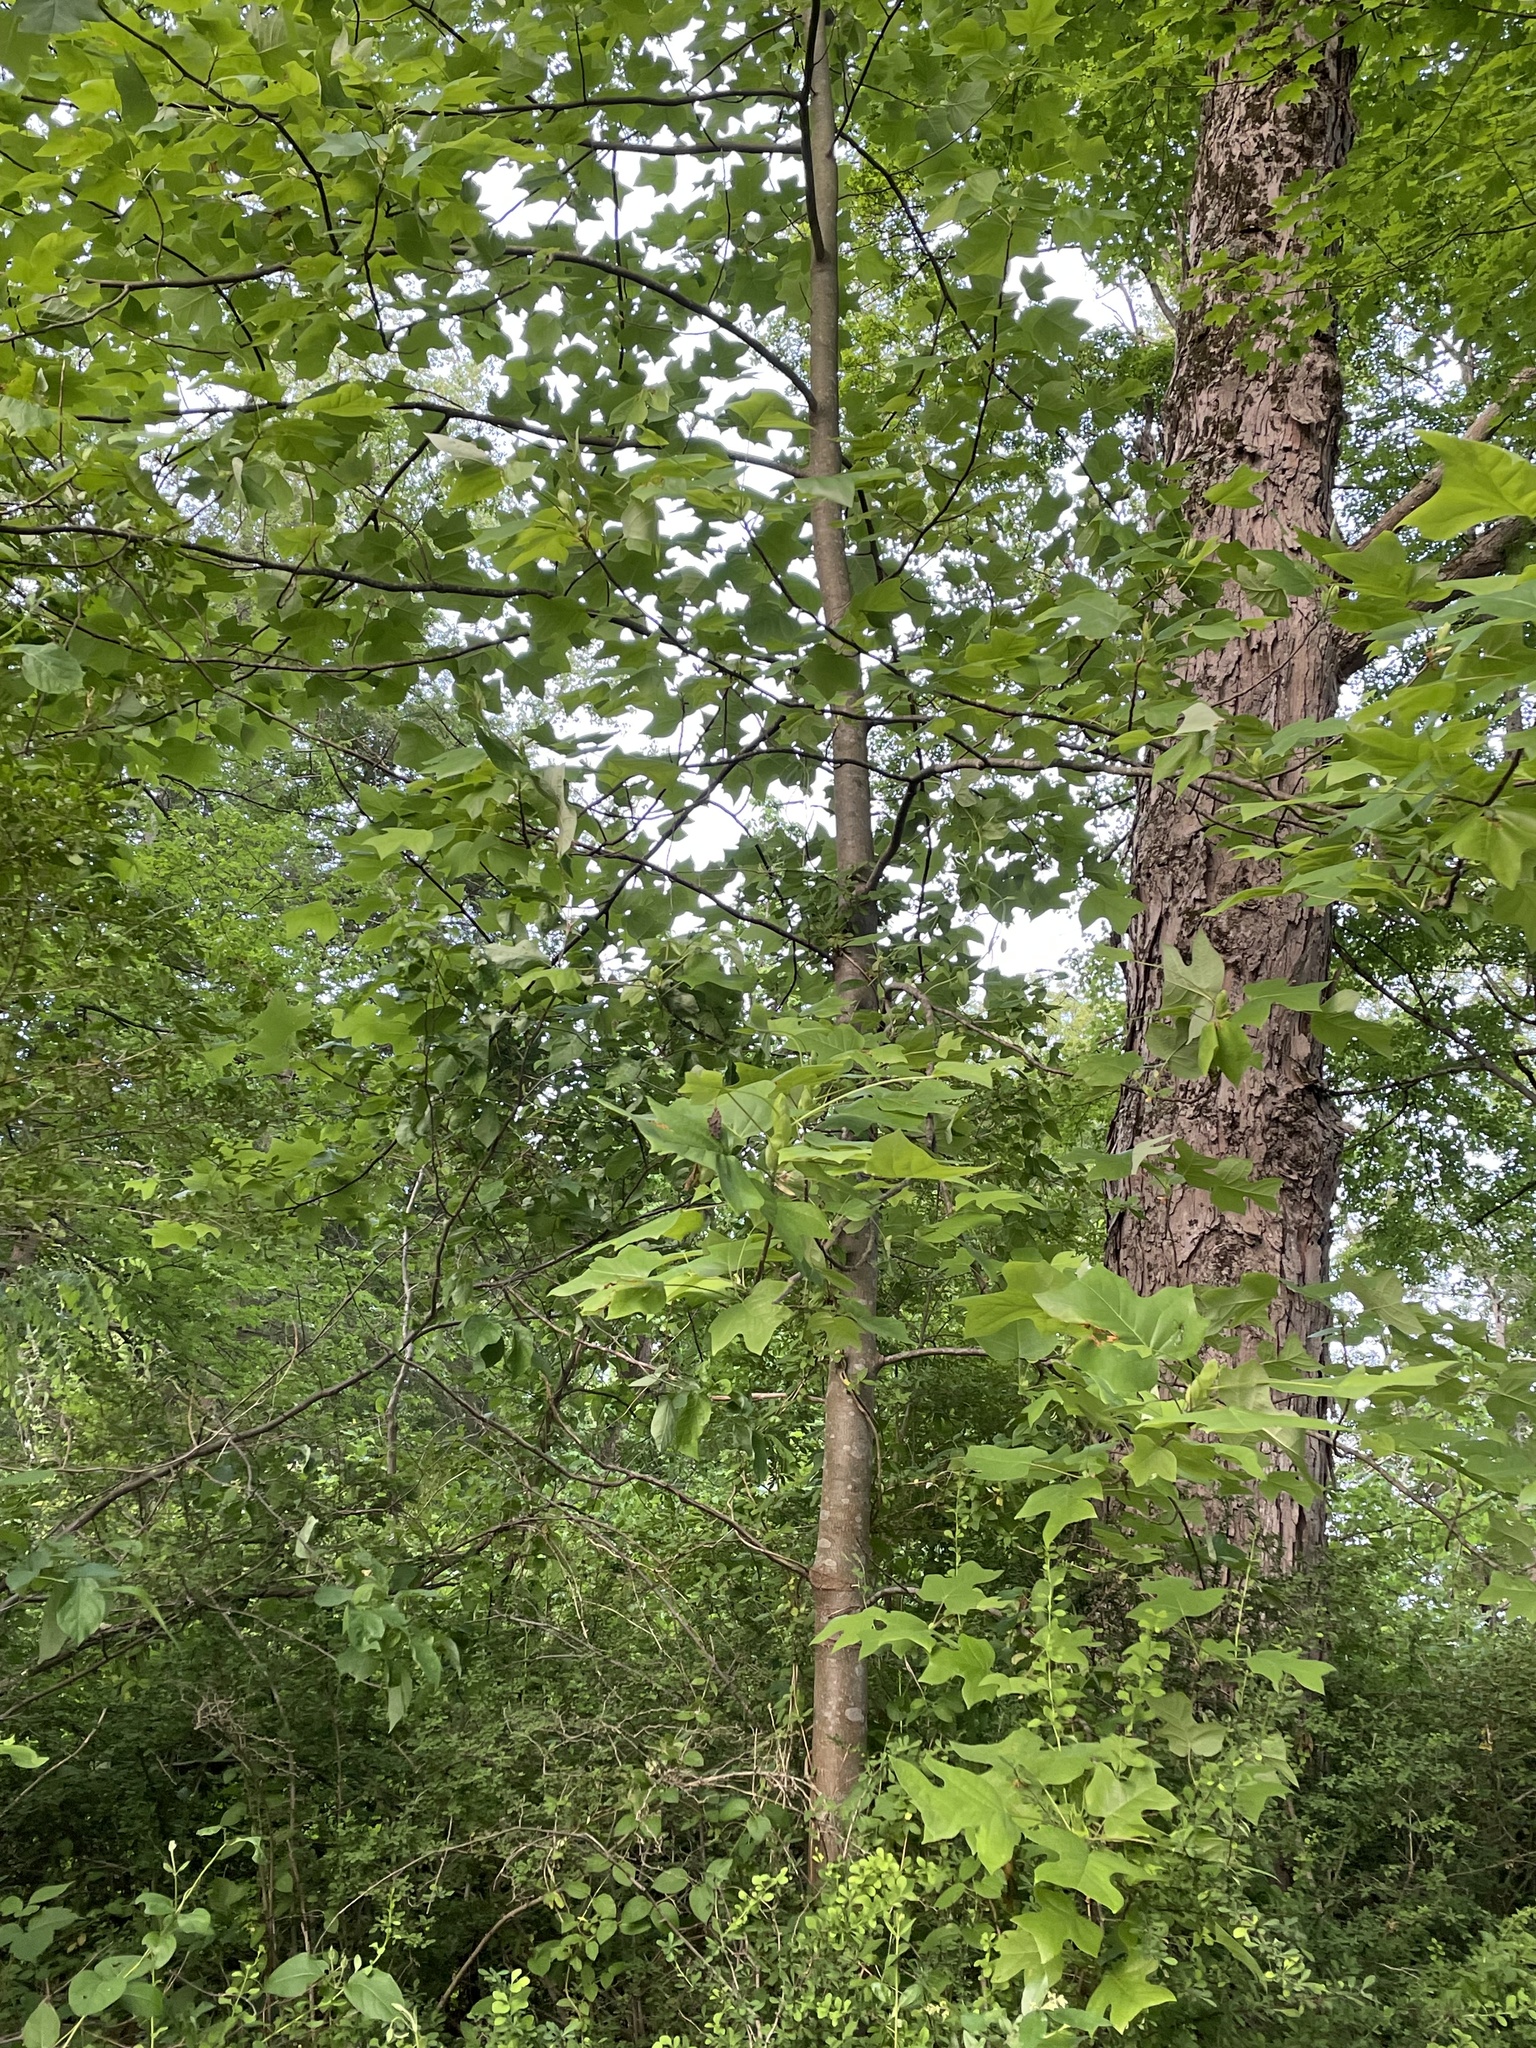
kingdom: Plantae
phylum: Tracheophyta
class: Magnoliopsida
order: Magnoliales
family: Magnoliaceae
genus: Liriodendron
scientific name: Liriodendron tulipifera
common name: Tulip tree
